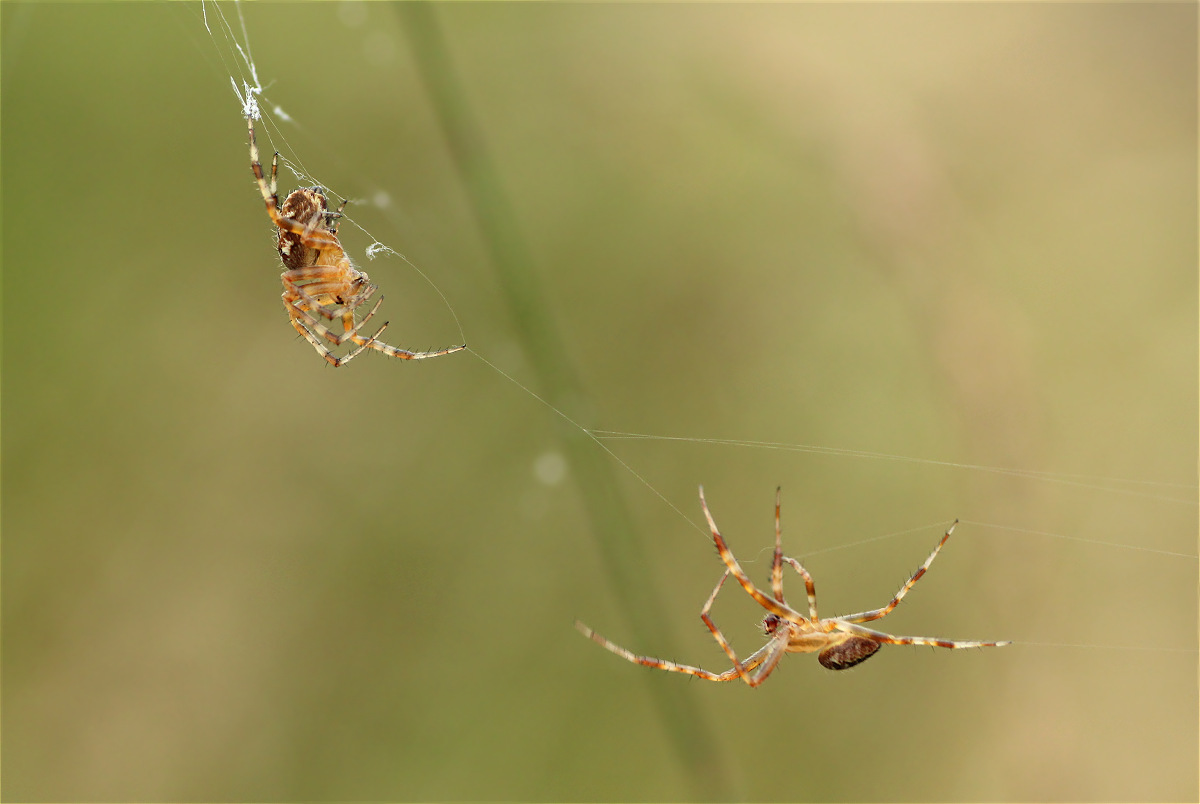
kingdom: Animalia
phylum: Arthropoda
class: Arachnida
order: Araneae
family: Araneidae
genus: Araneus
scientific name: Araneus diadematus
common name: Cross orbweaver
